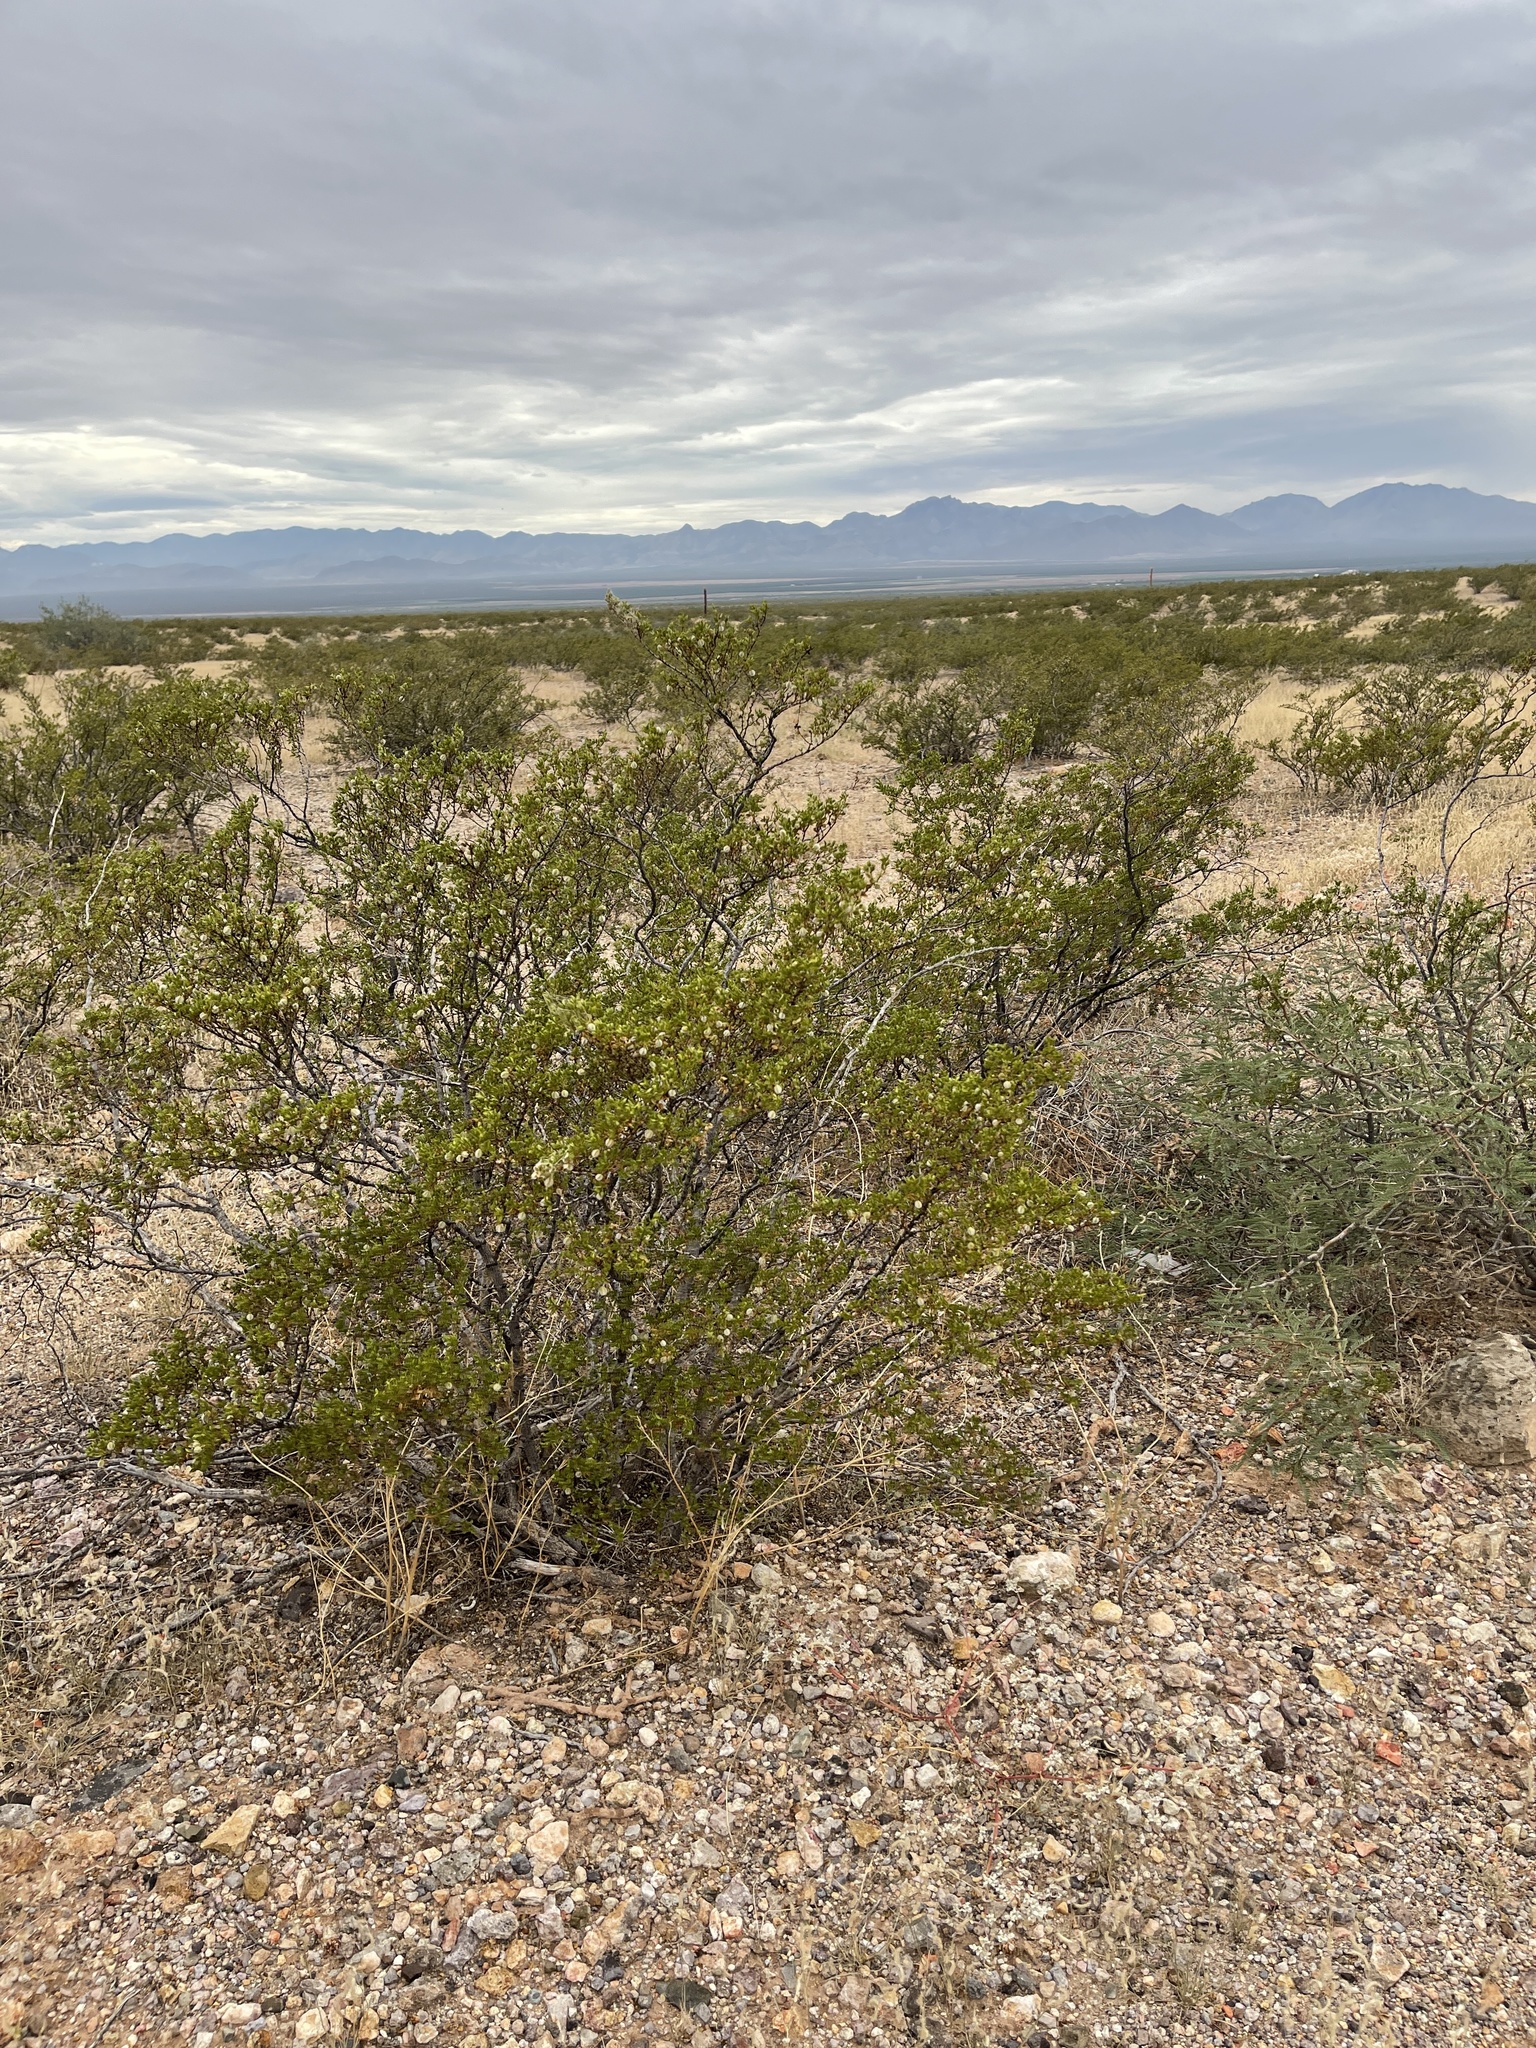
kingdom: Plantae
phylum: Tracheophyta
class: Magnoliopsida
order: Zygophyllales
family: Zygophyllaceae
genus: Larrea
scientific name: Larrea tridentata
